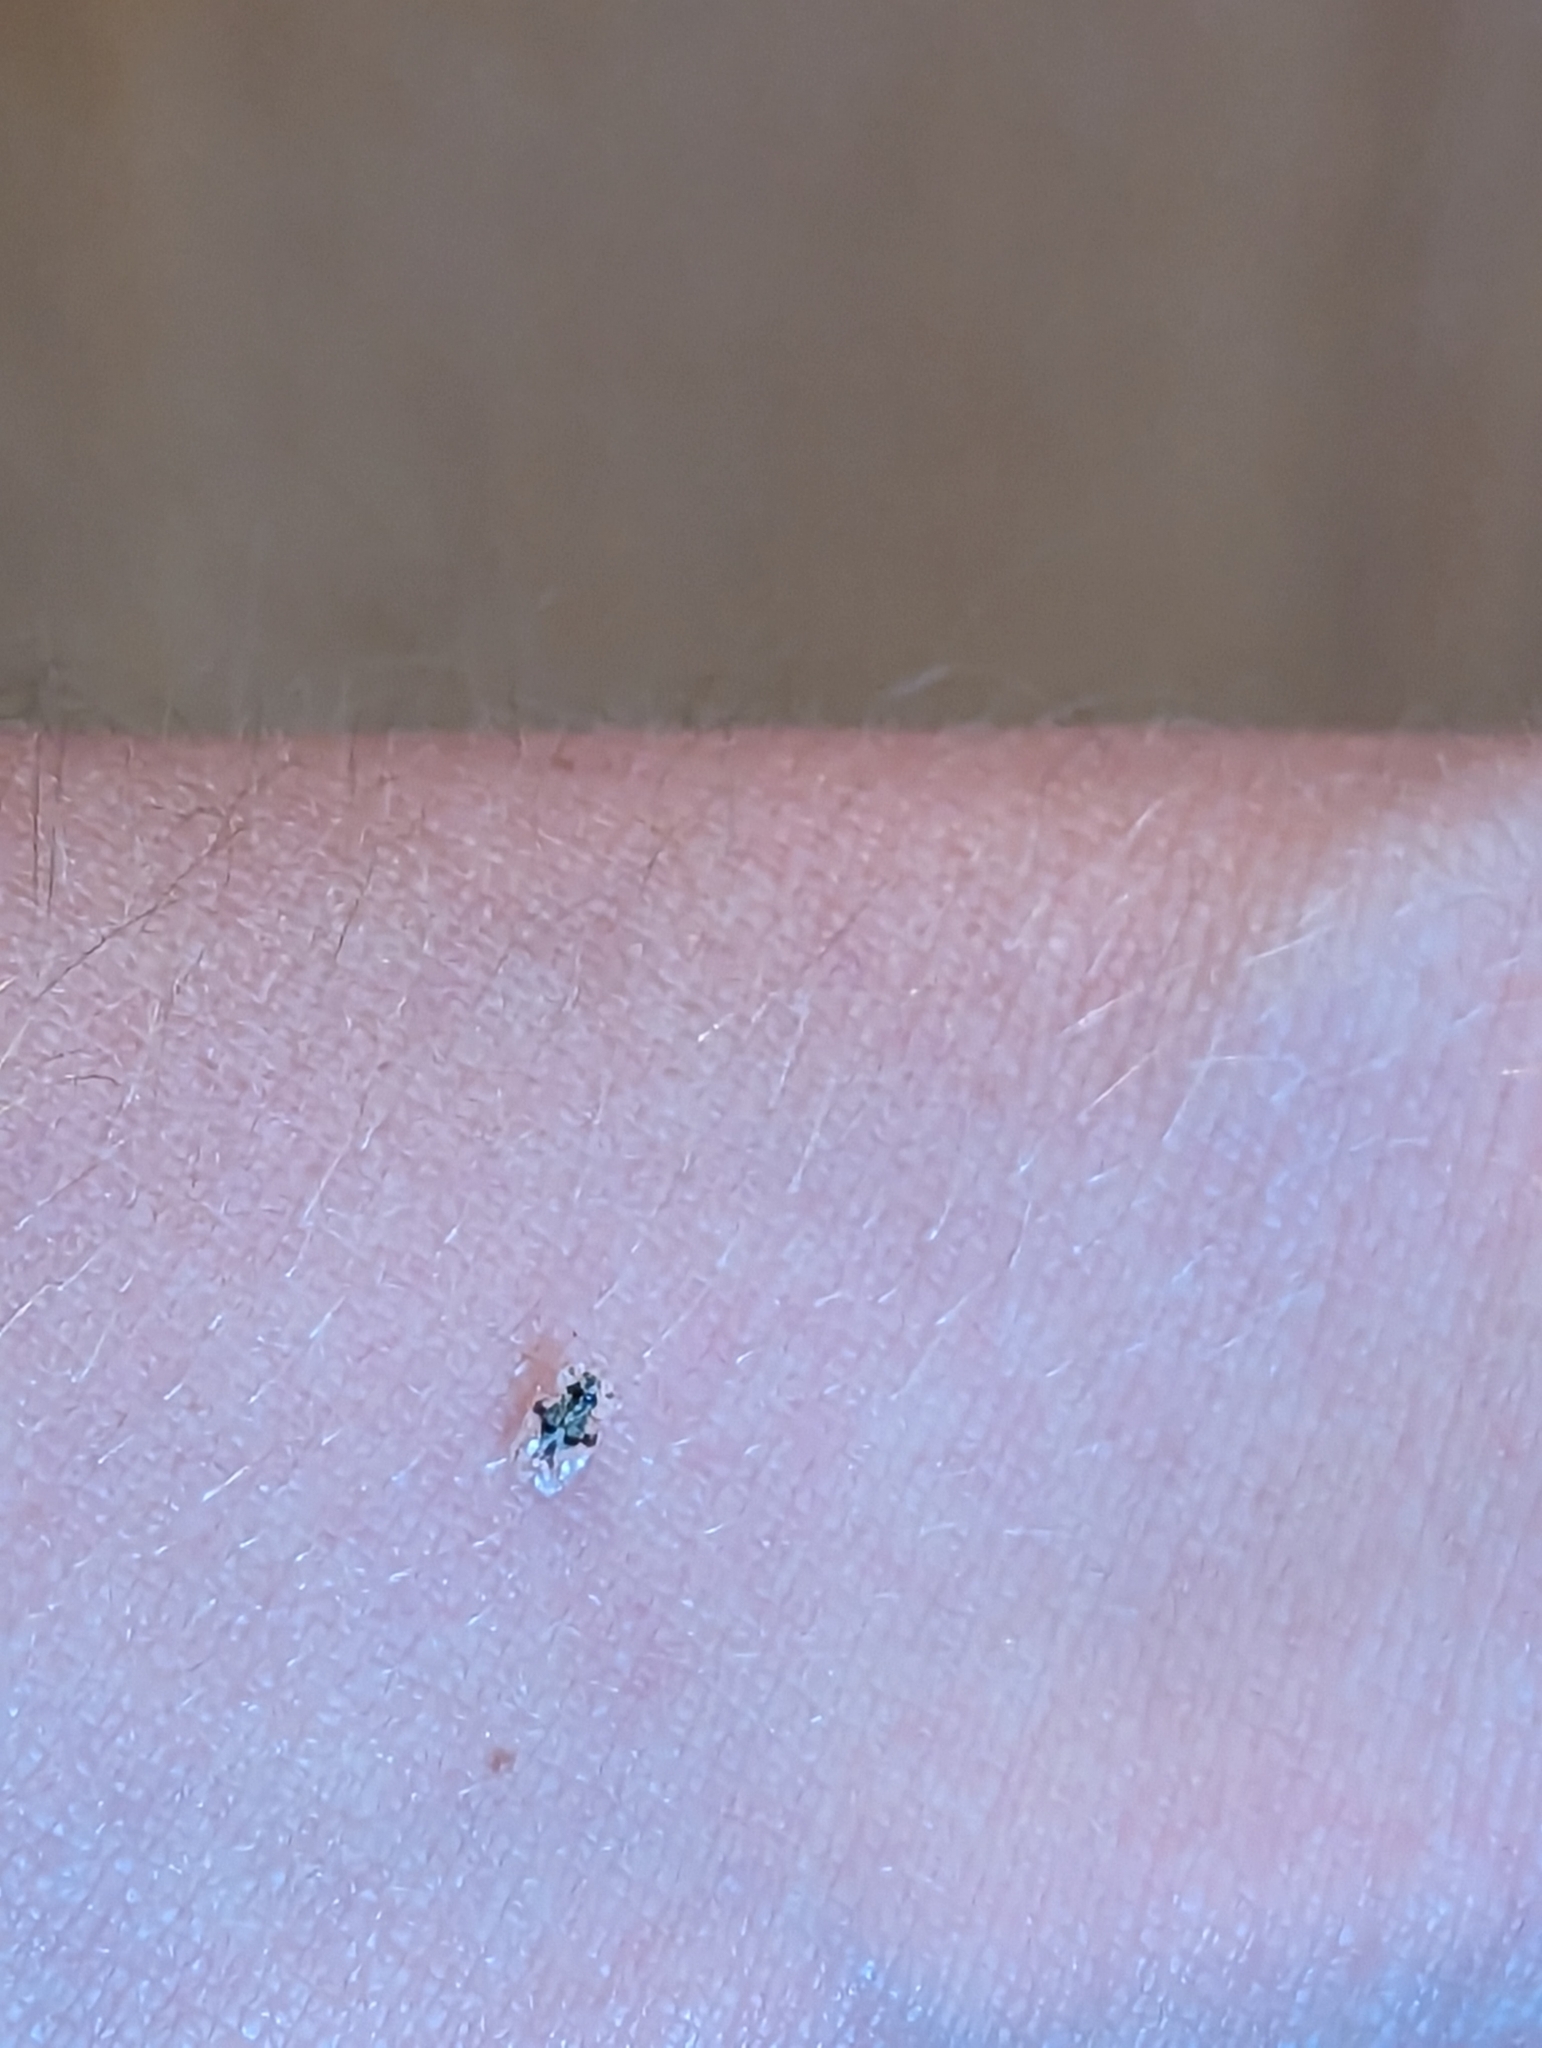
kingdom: Animalia
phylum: Arthropoda
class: Insecta
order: Hemiptera
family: Tingidae
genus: Corythucha
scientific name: Corythucha arcuata
